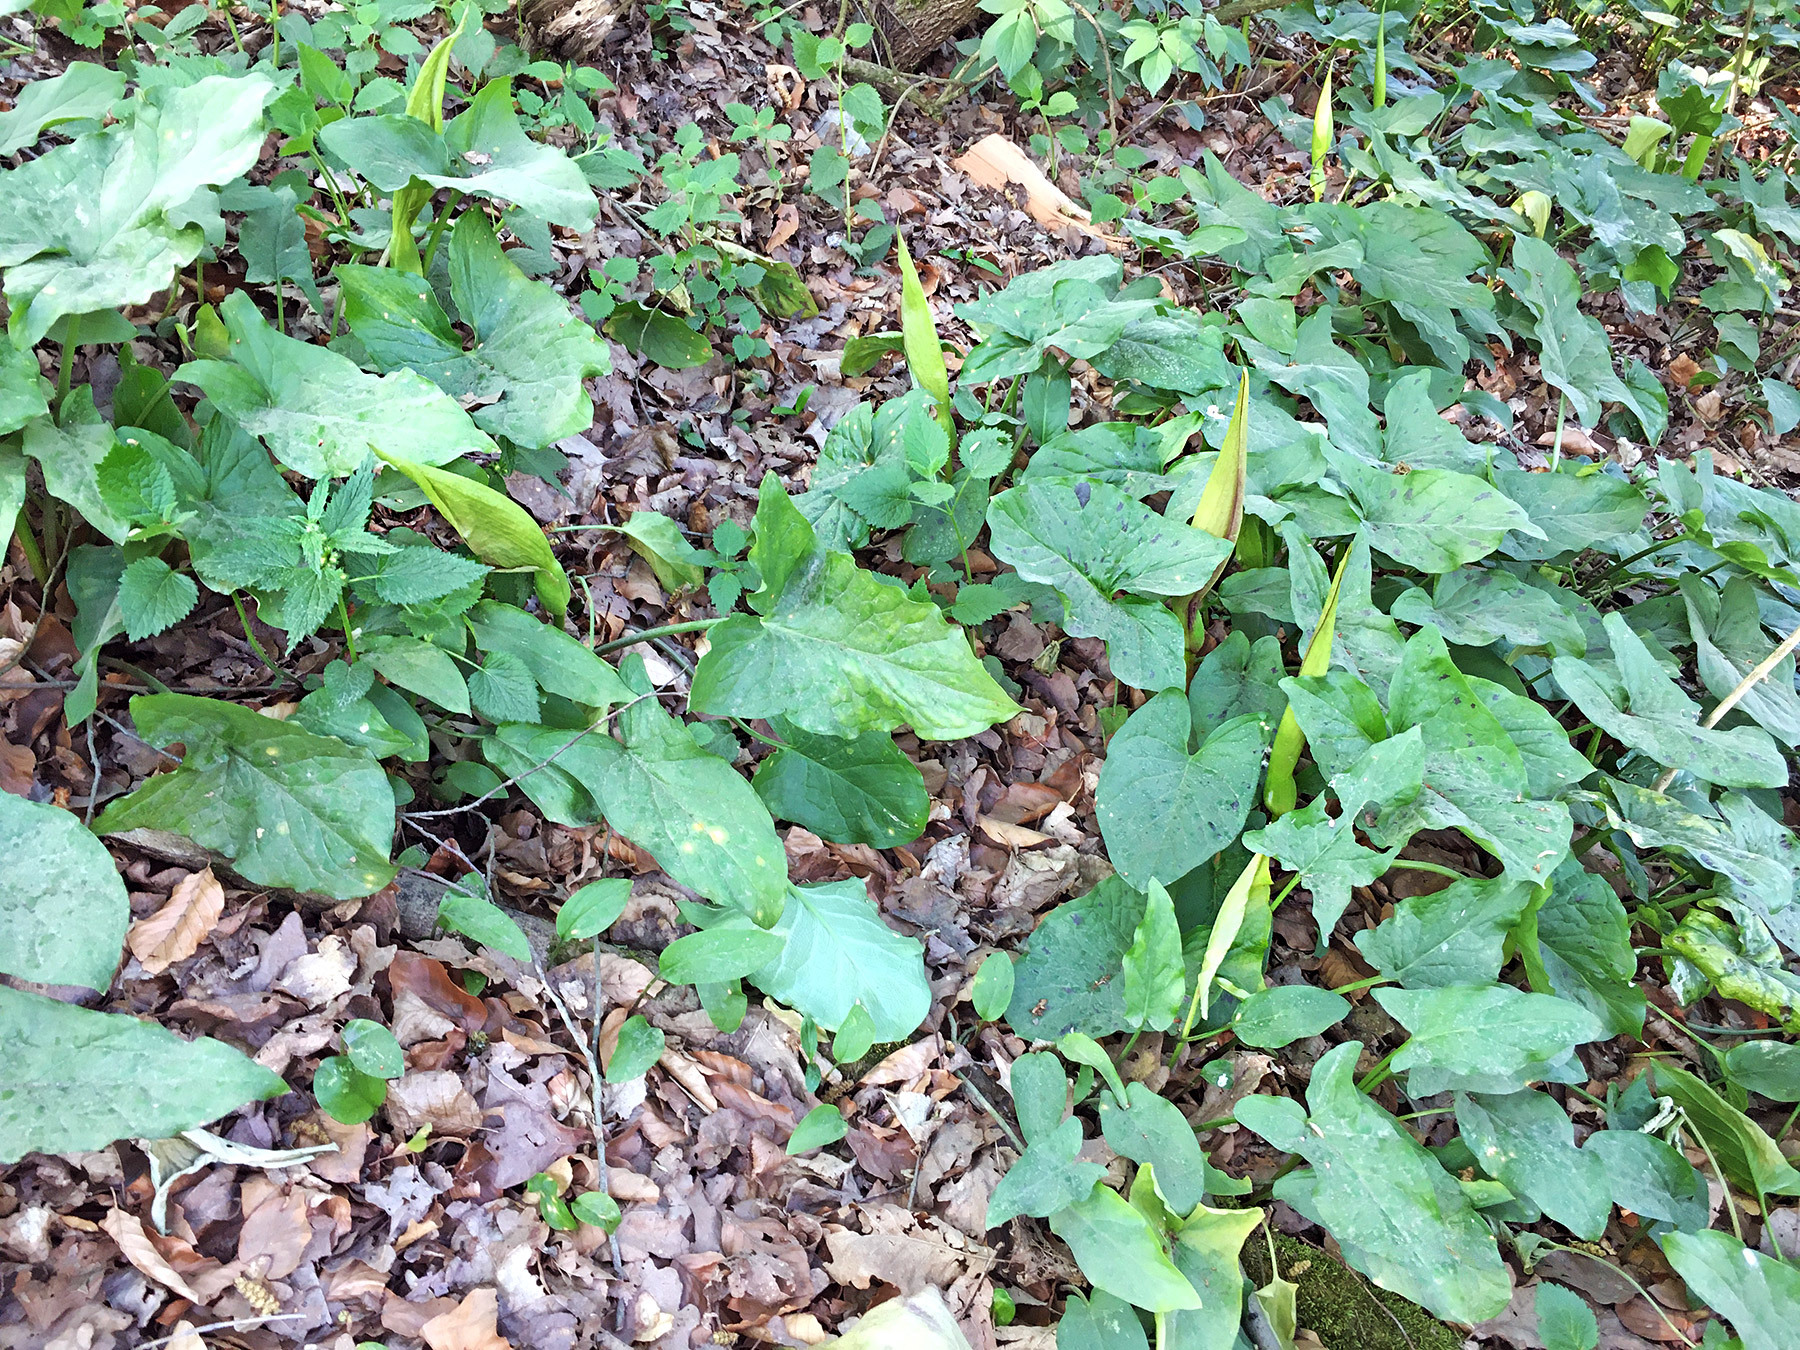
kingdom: Plantae
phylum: Tracheophyta
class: Liliopsida
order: Alismatales
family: Araceae
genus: Arum
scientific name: Arum maculatum
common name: Lords-and-ladies
